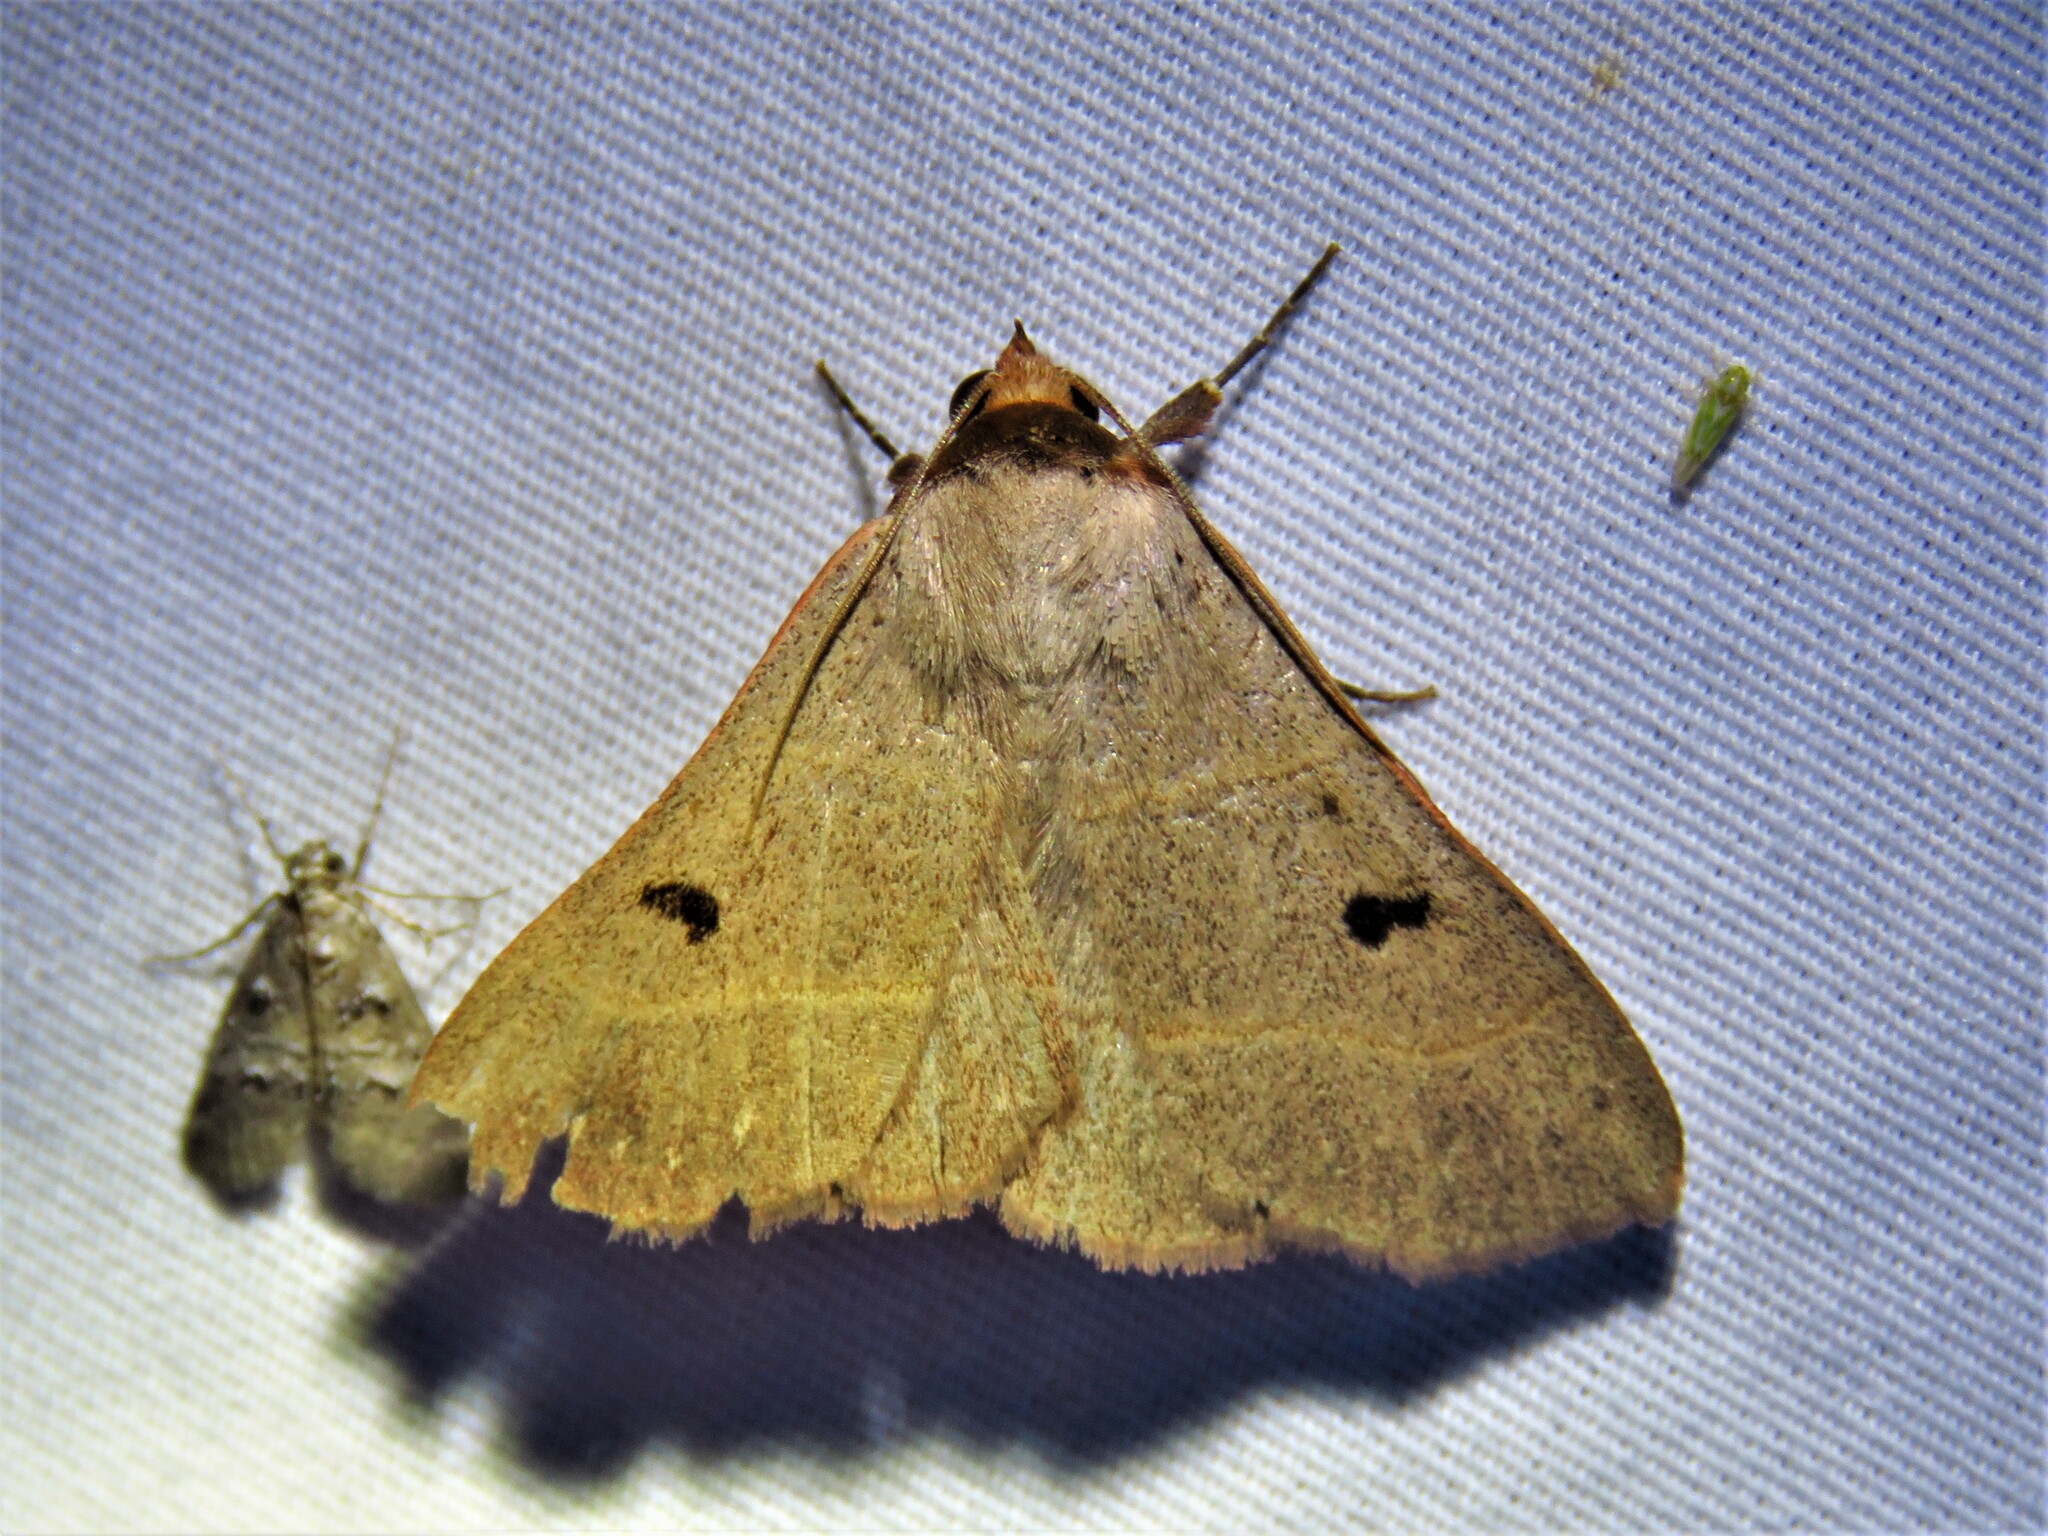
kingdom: Animalia
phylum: Arthropoda
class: Insecta
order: Lepidoptera
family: Erebidae
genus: Panopoda
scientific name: Panopoda rufimargo
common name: Red-lined panopoda moth
